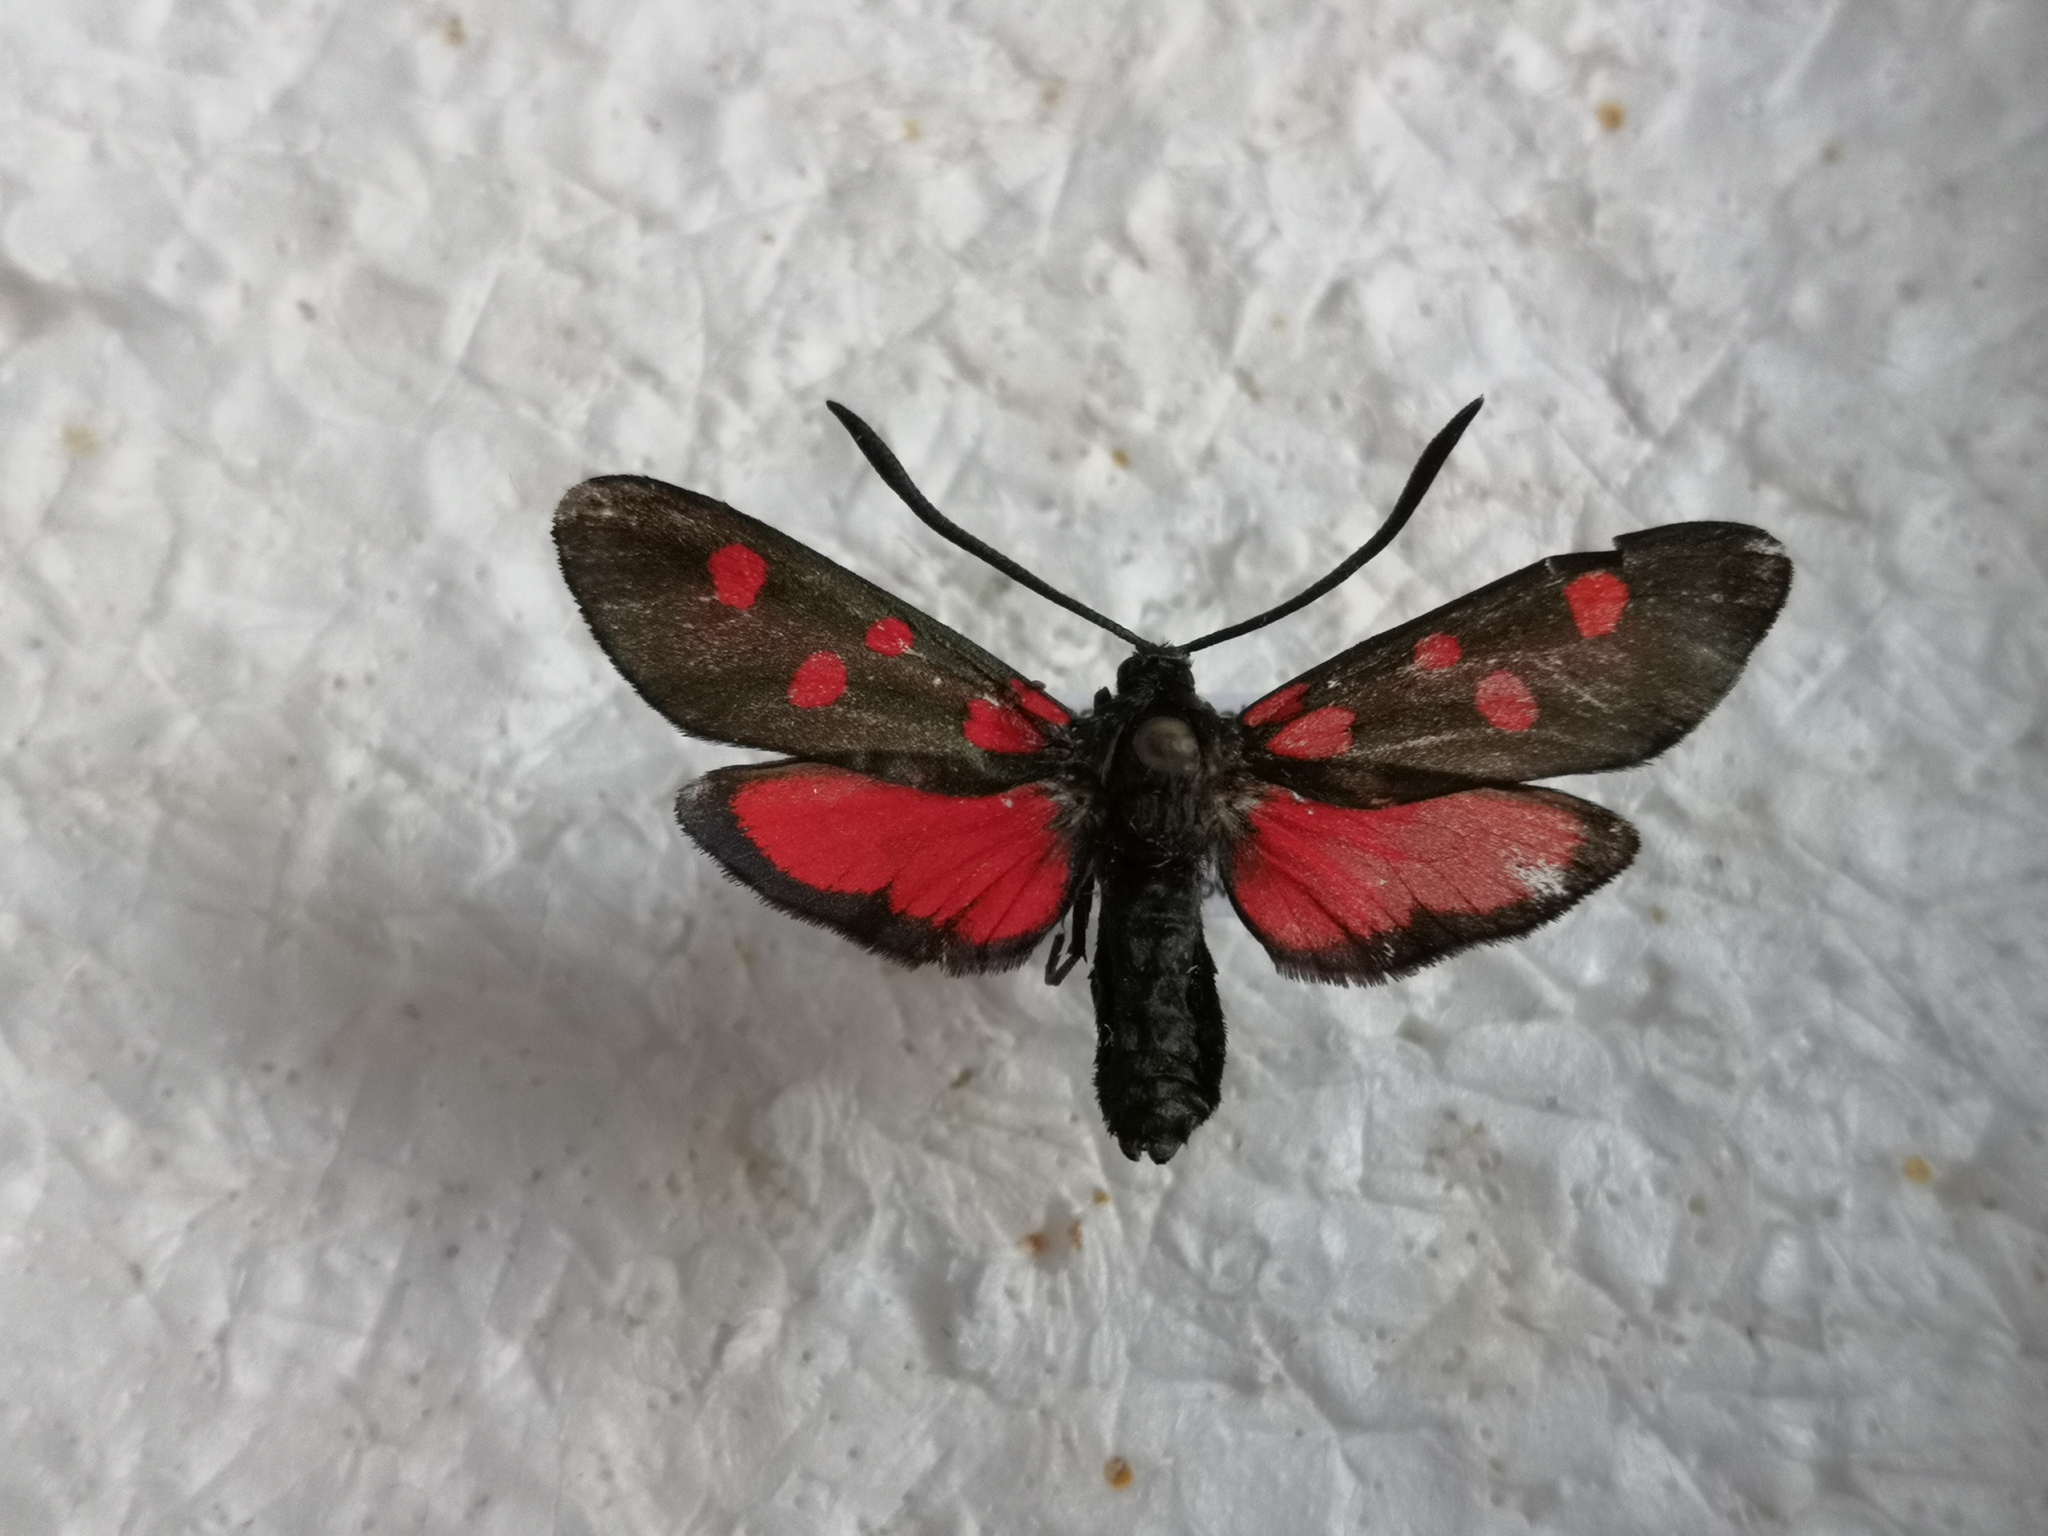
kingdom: Animalia
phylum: Arthropoda
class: Insecta
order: Lepidoptera
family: Zygaenidae
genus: Zygaena
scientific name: Zygaena angelicae
